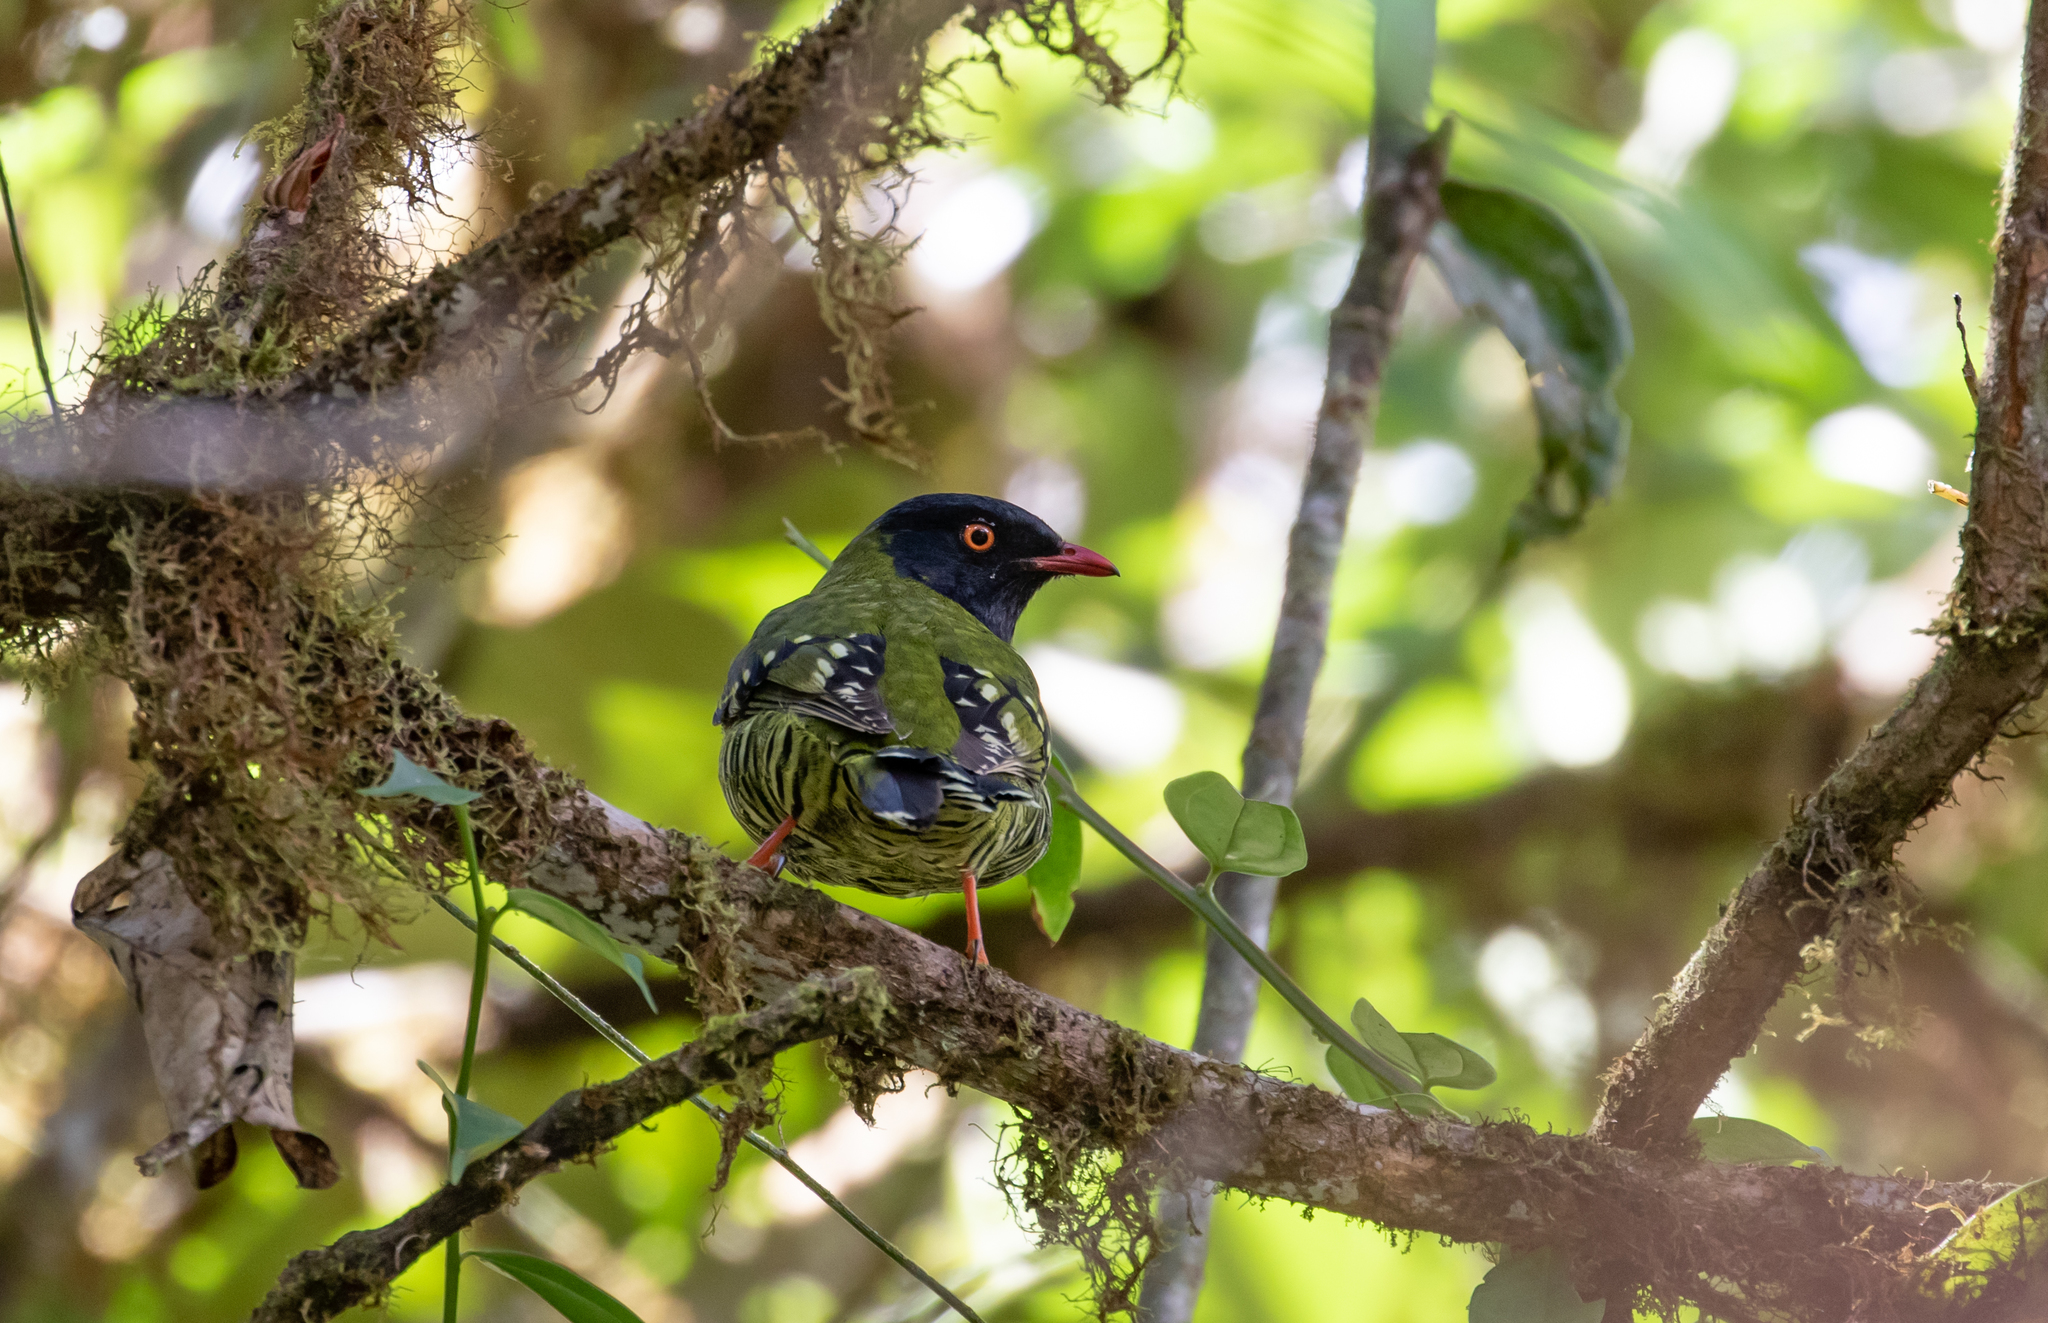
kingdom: Animalia
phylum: Chordata
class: Aves
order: Passeriformes
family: Cotingidae
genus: Pipreola
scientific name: Pipreola arcuata
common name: Barred fruiteater
